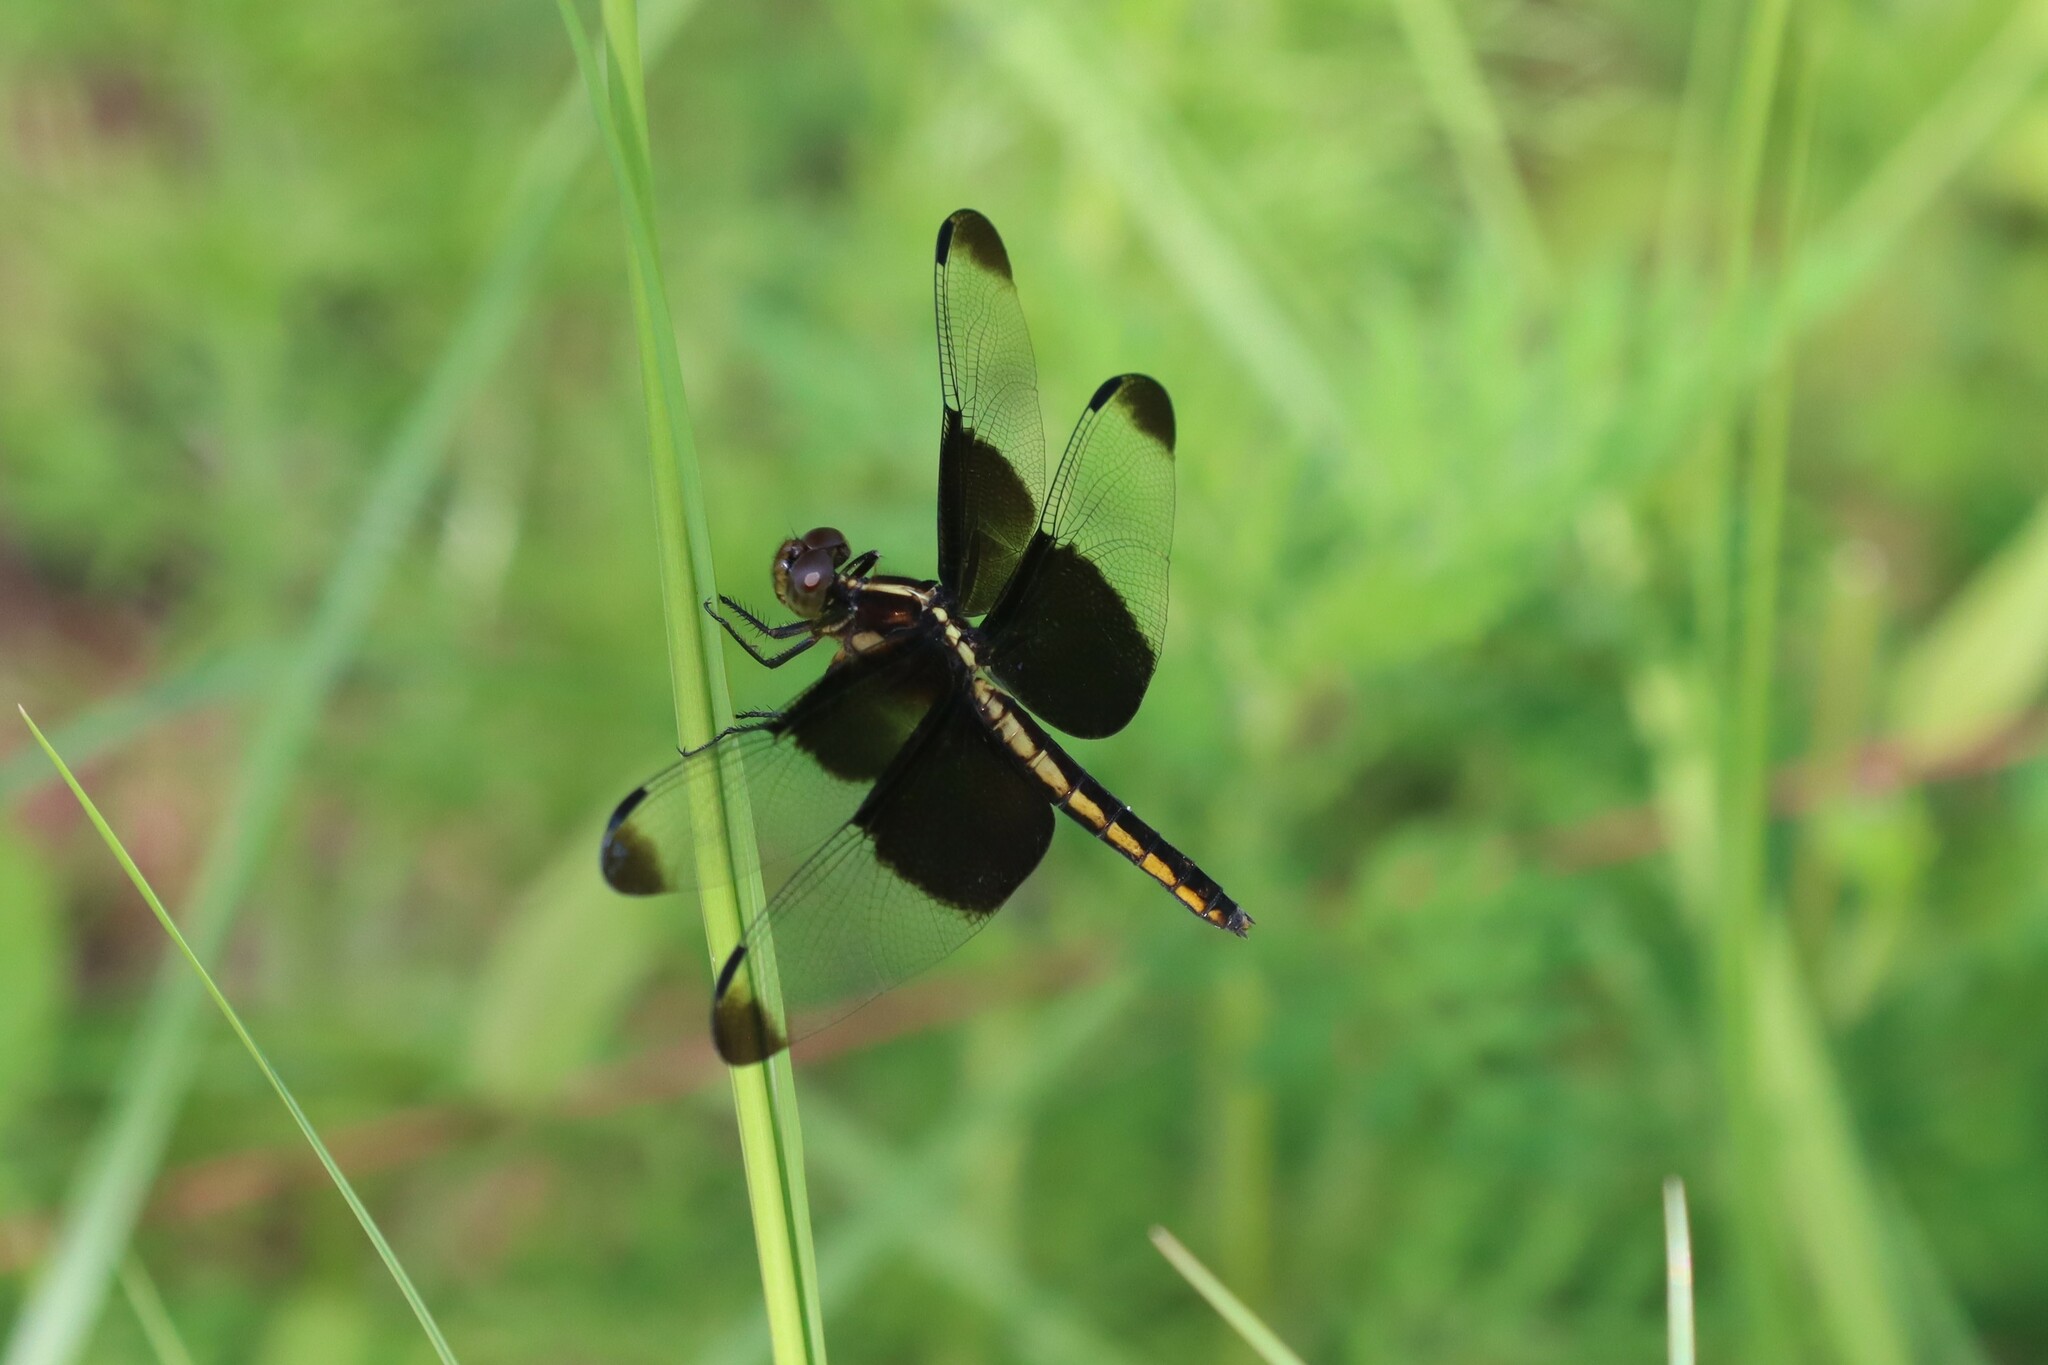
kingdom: Animalia
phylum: Arthropoda
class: Insecta
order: Odonata
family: Libellulidae
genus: Libellula
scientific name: Libellula luctuosa
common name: Widow skimmer
